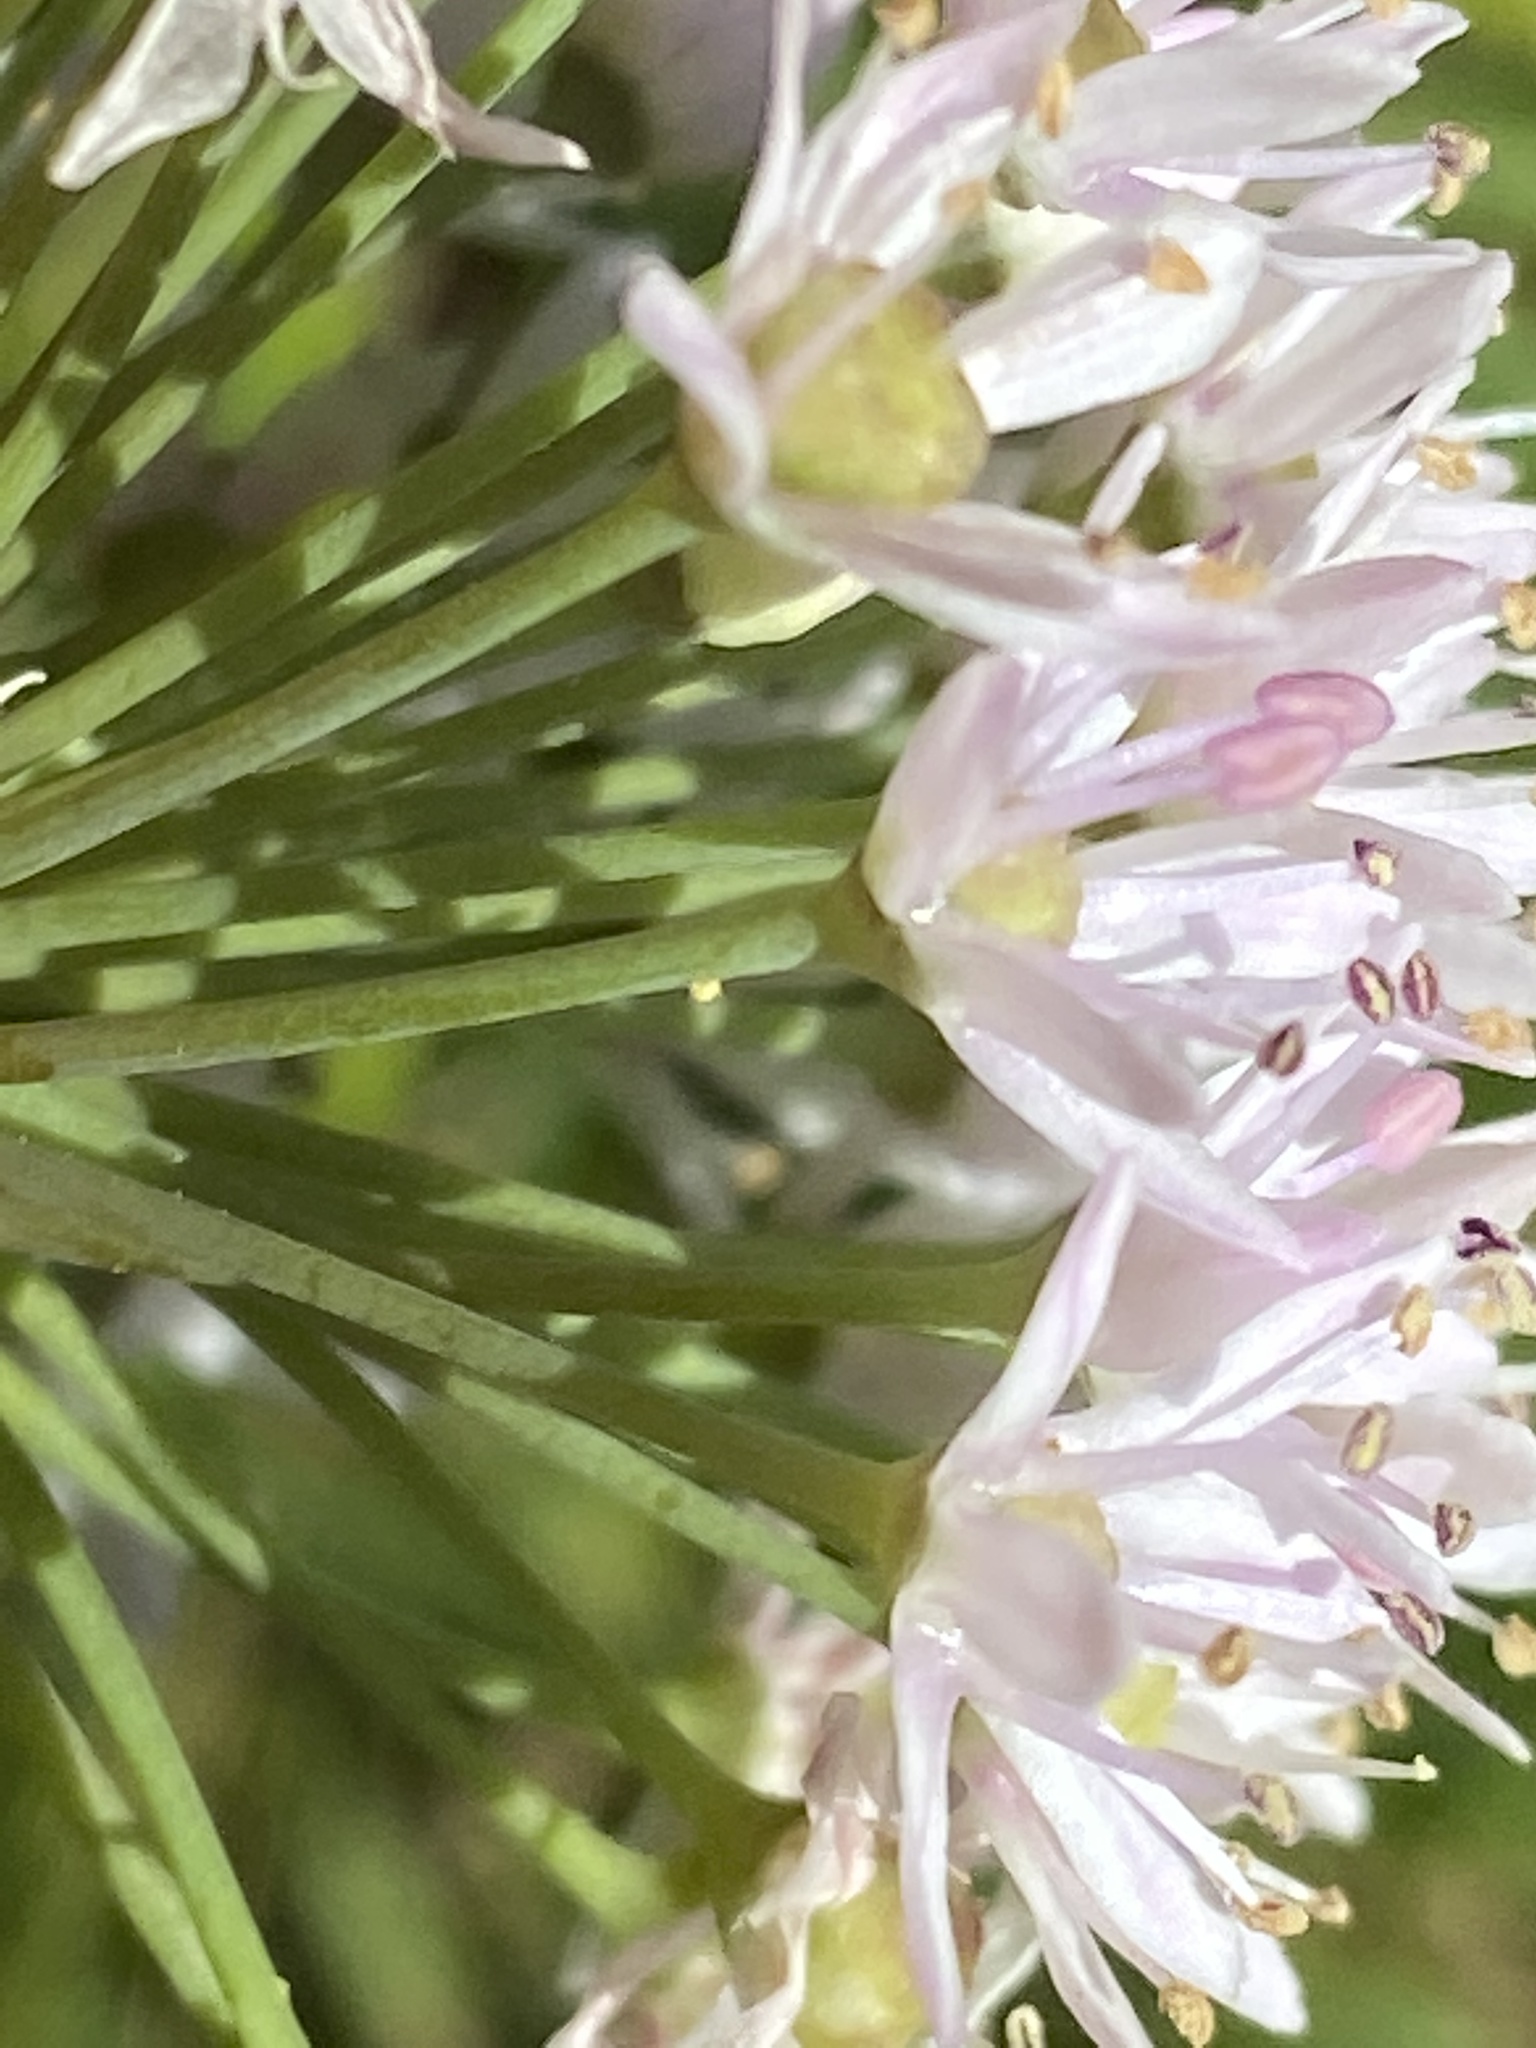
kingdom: Plantae
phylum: Tracheophyta
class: Liliopsida
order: Asparagales
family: Amaryllidaceae
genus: Allium
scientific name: Allium canadense
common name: Meadow garlic
